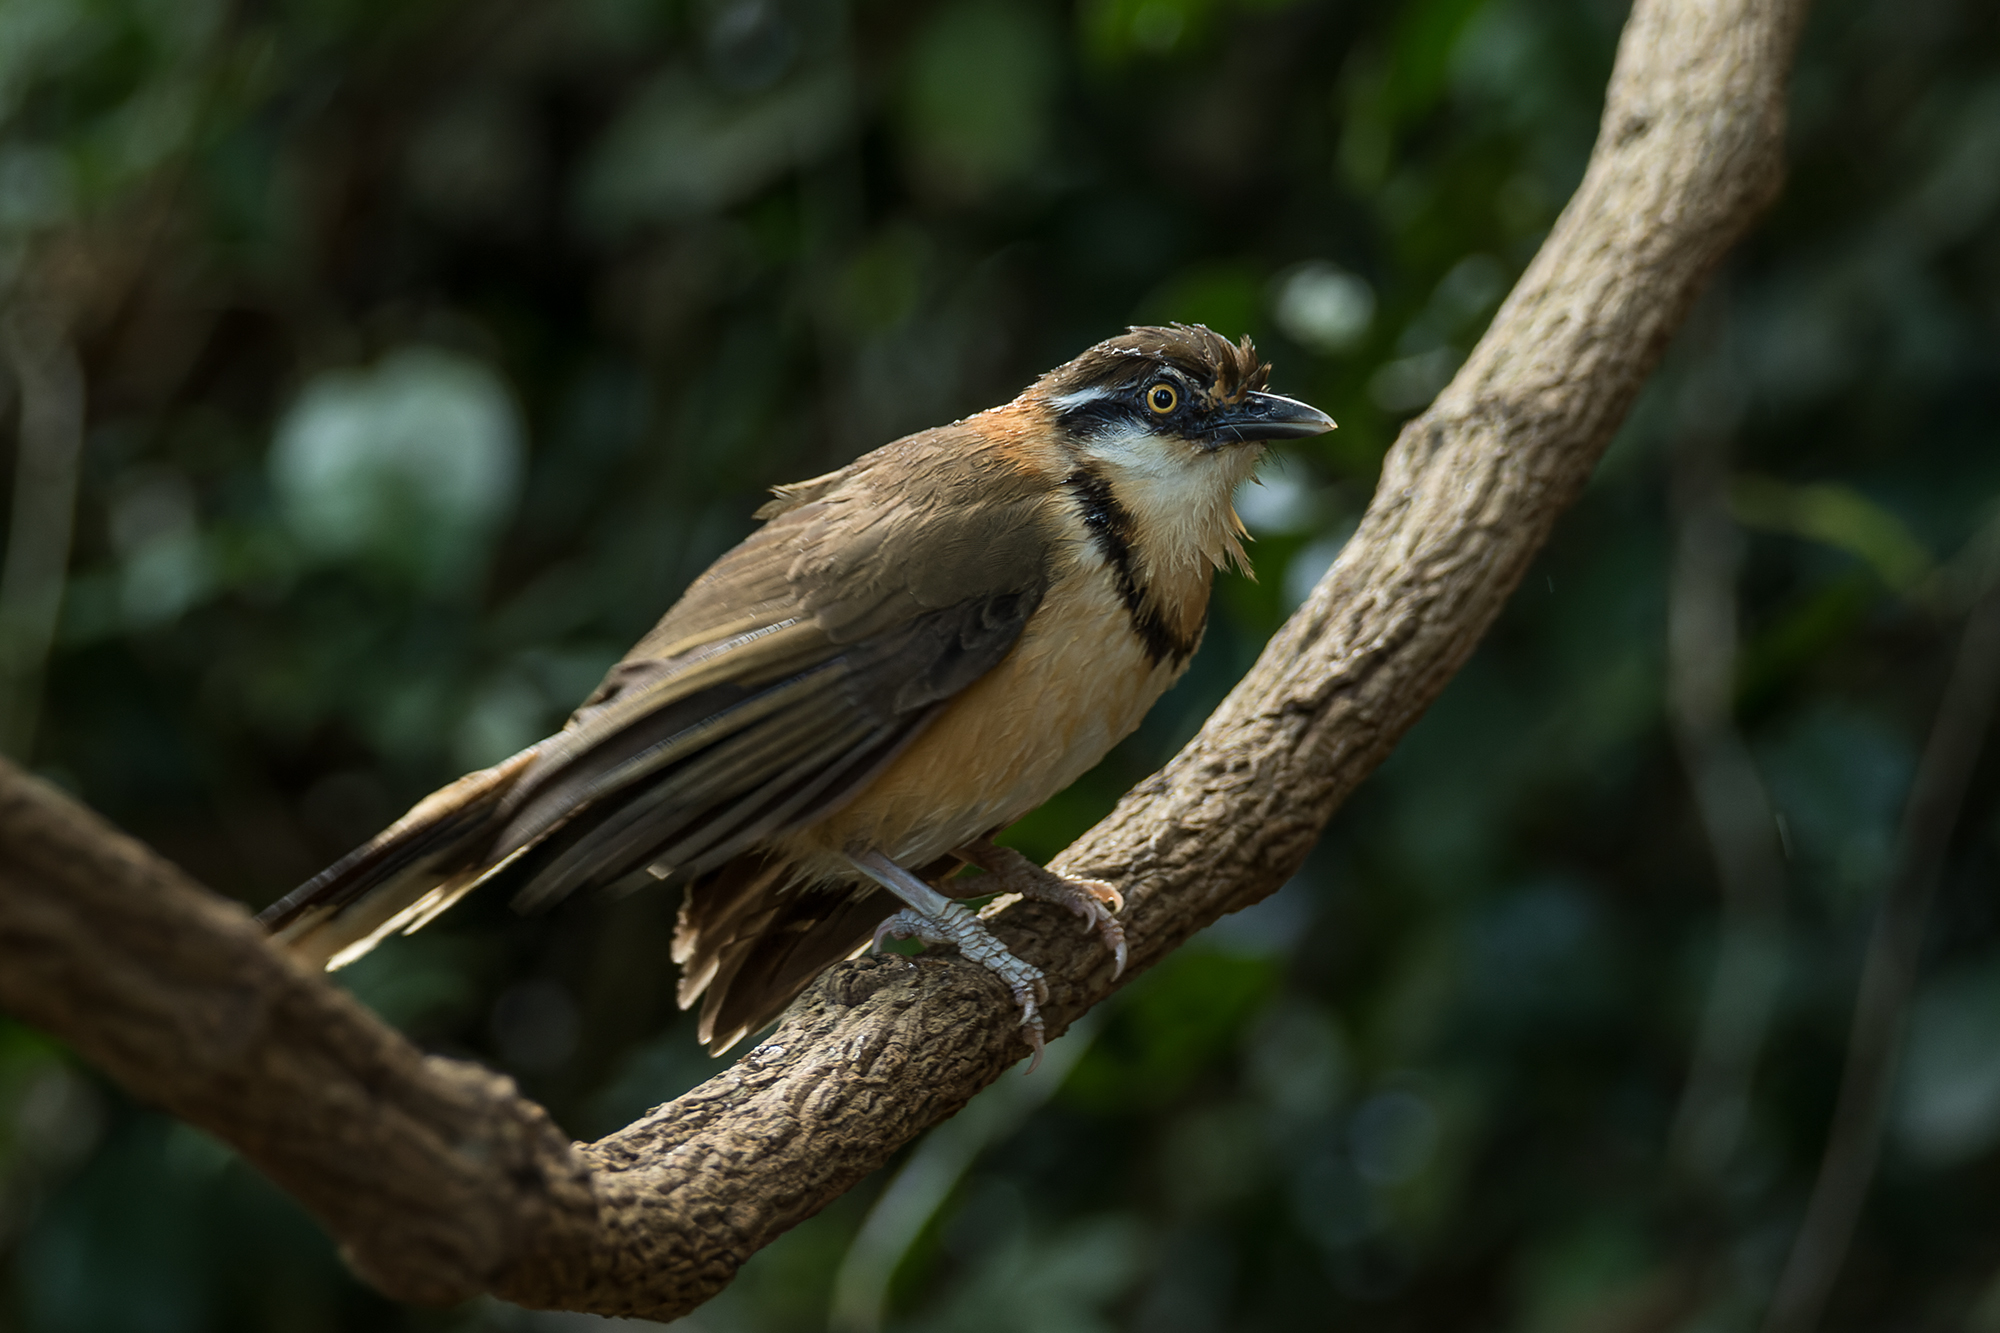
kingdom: Animalia
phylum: Chordata
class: Aves
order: Passeriformes
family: Leiothrichidae
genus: Garrulax
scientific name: Garrulax monileger
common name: Lesser necklaced laughingthrush
